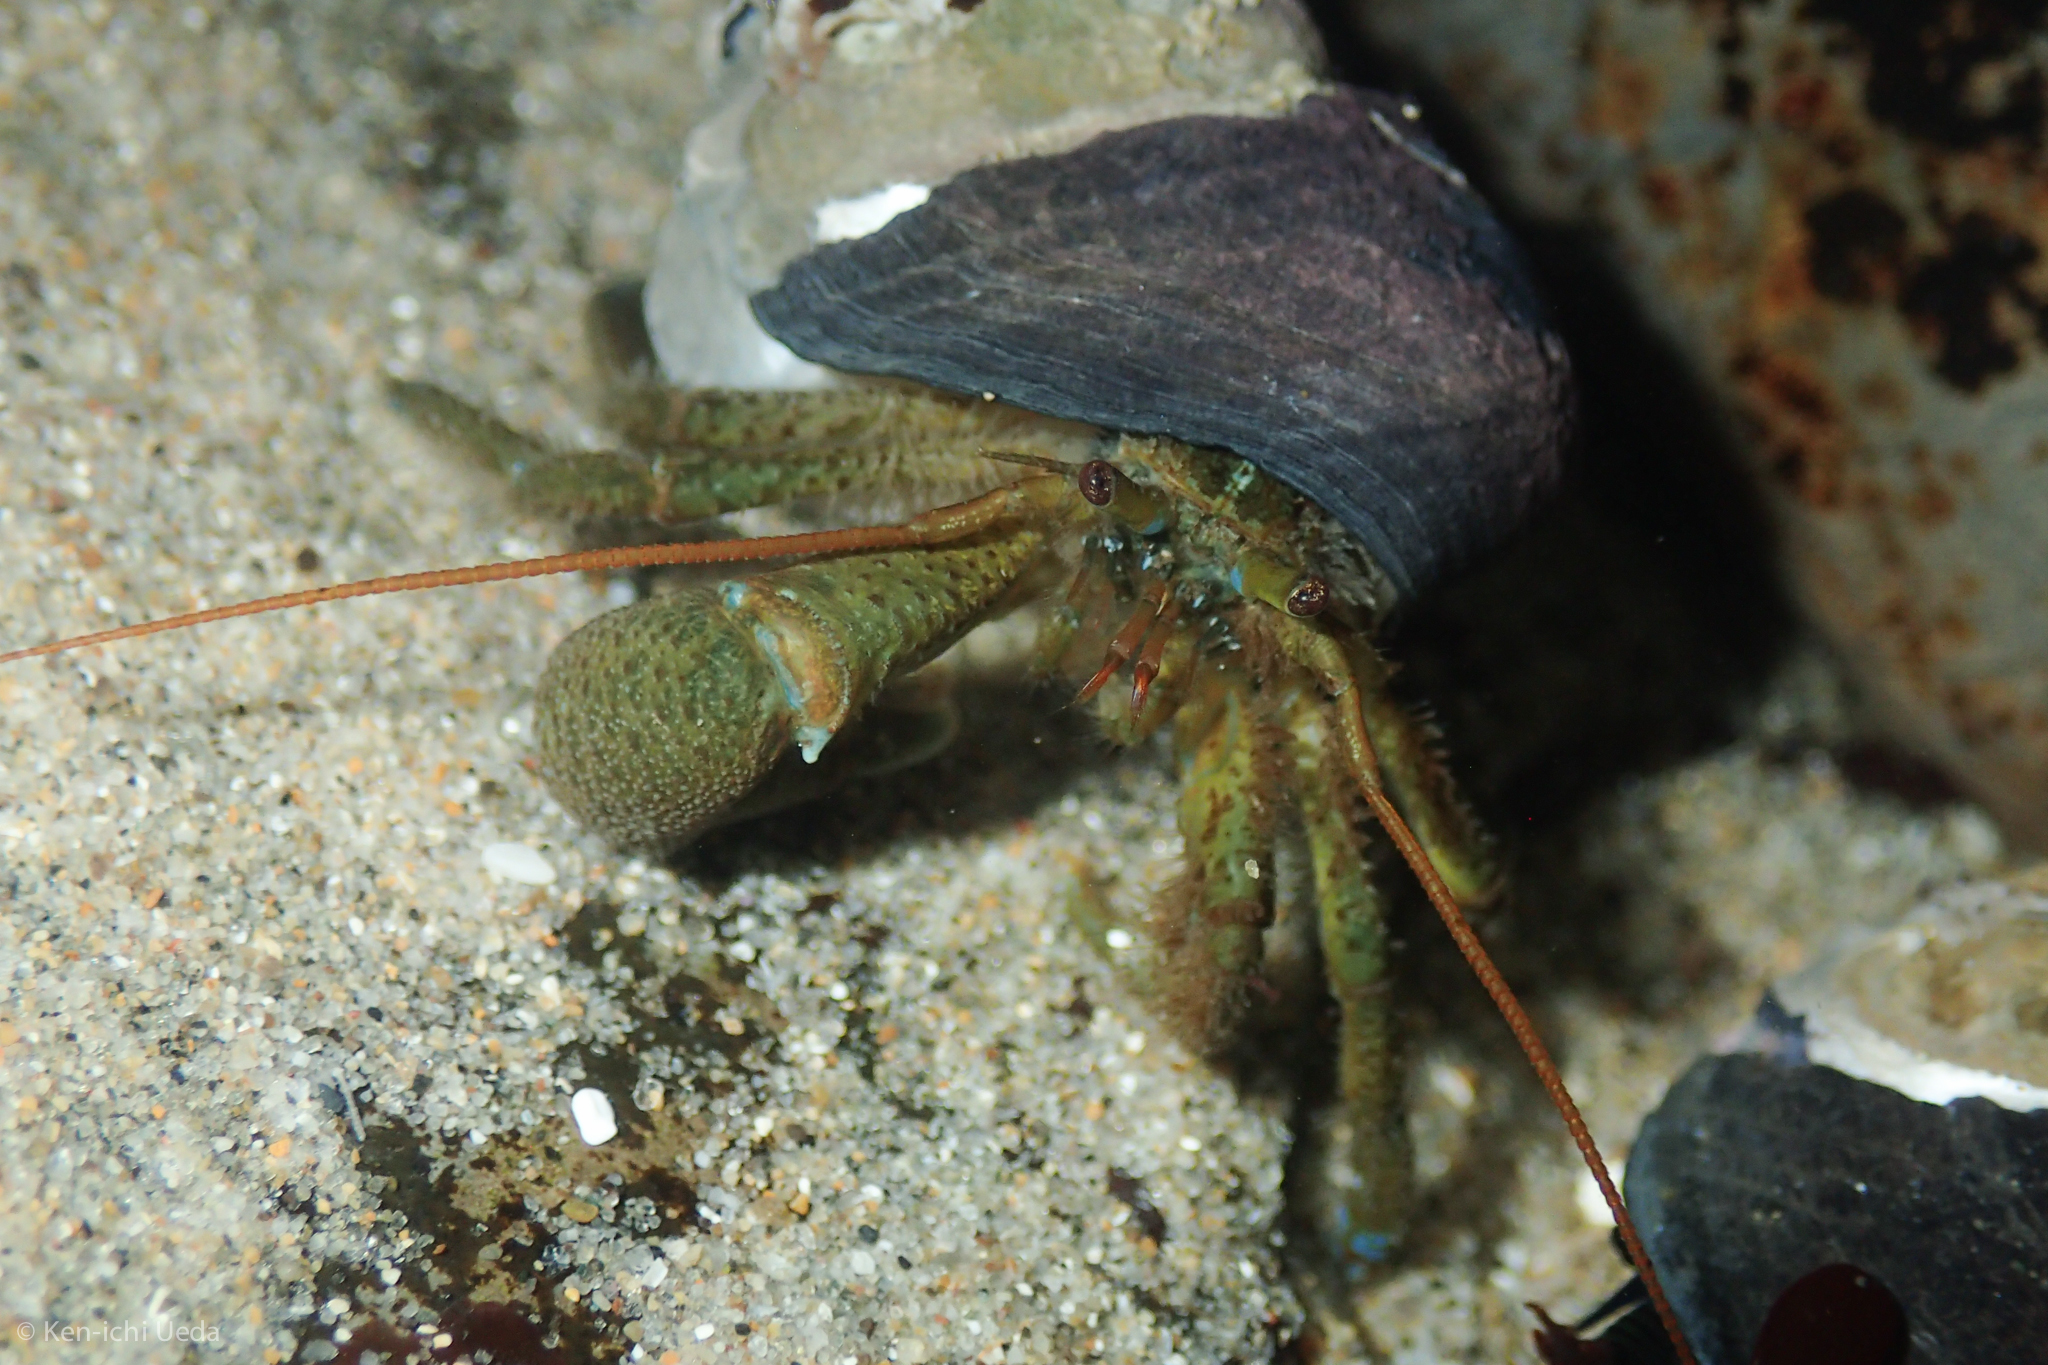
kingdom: Animalia
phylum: Arthropoda
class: Malacostraca
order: Decapoda
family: Paguridae
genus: Pagurus
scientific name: Pagurus samuelis
